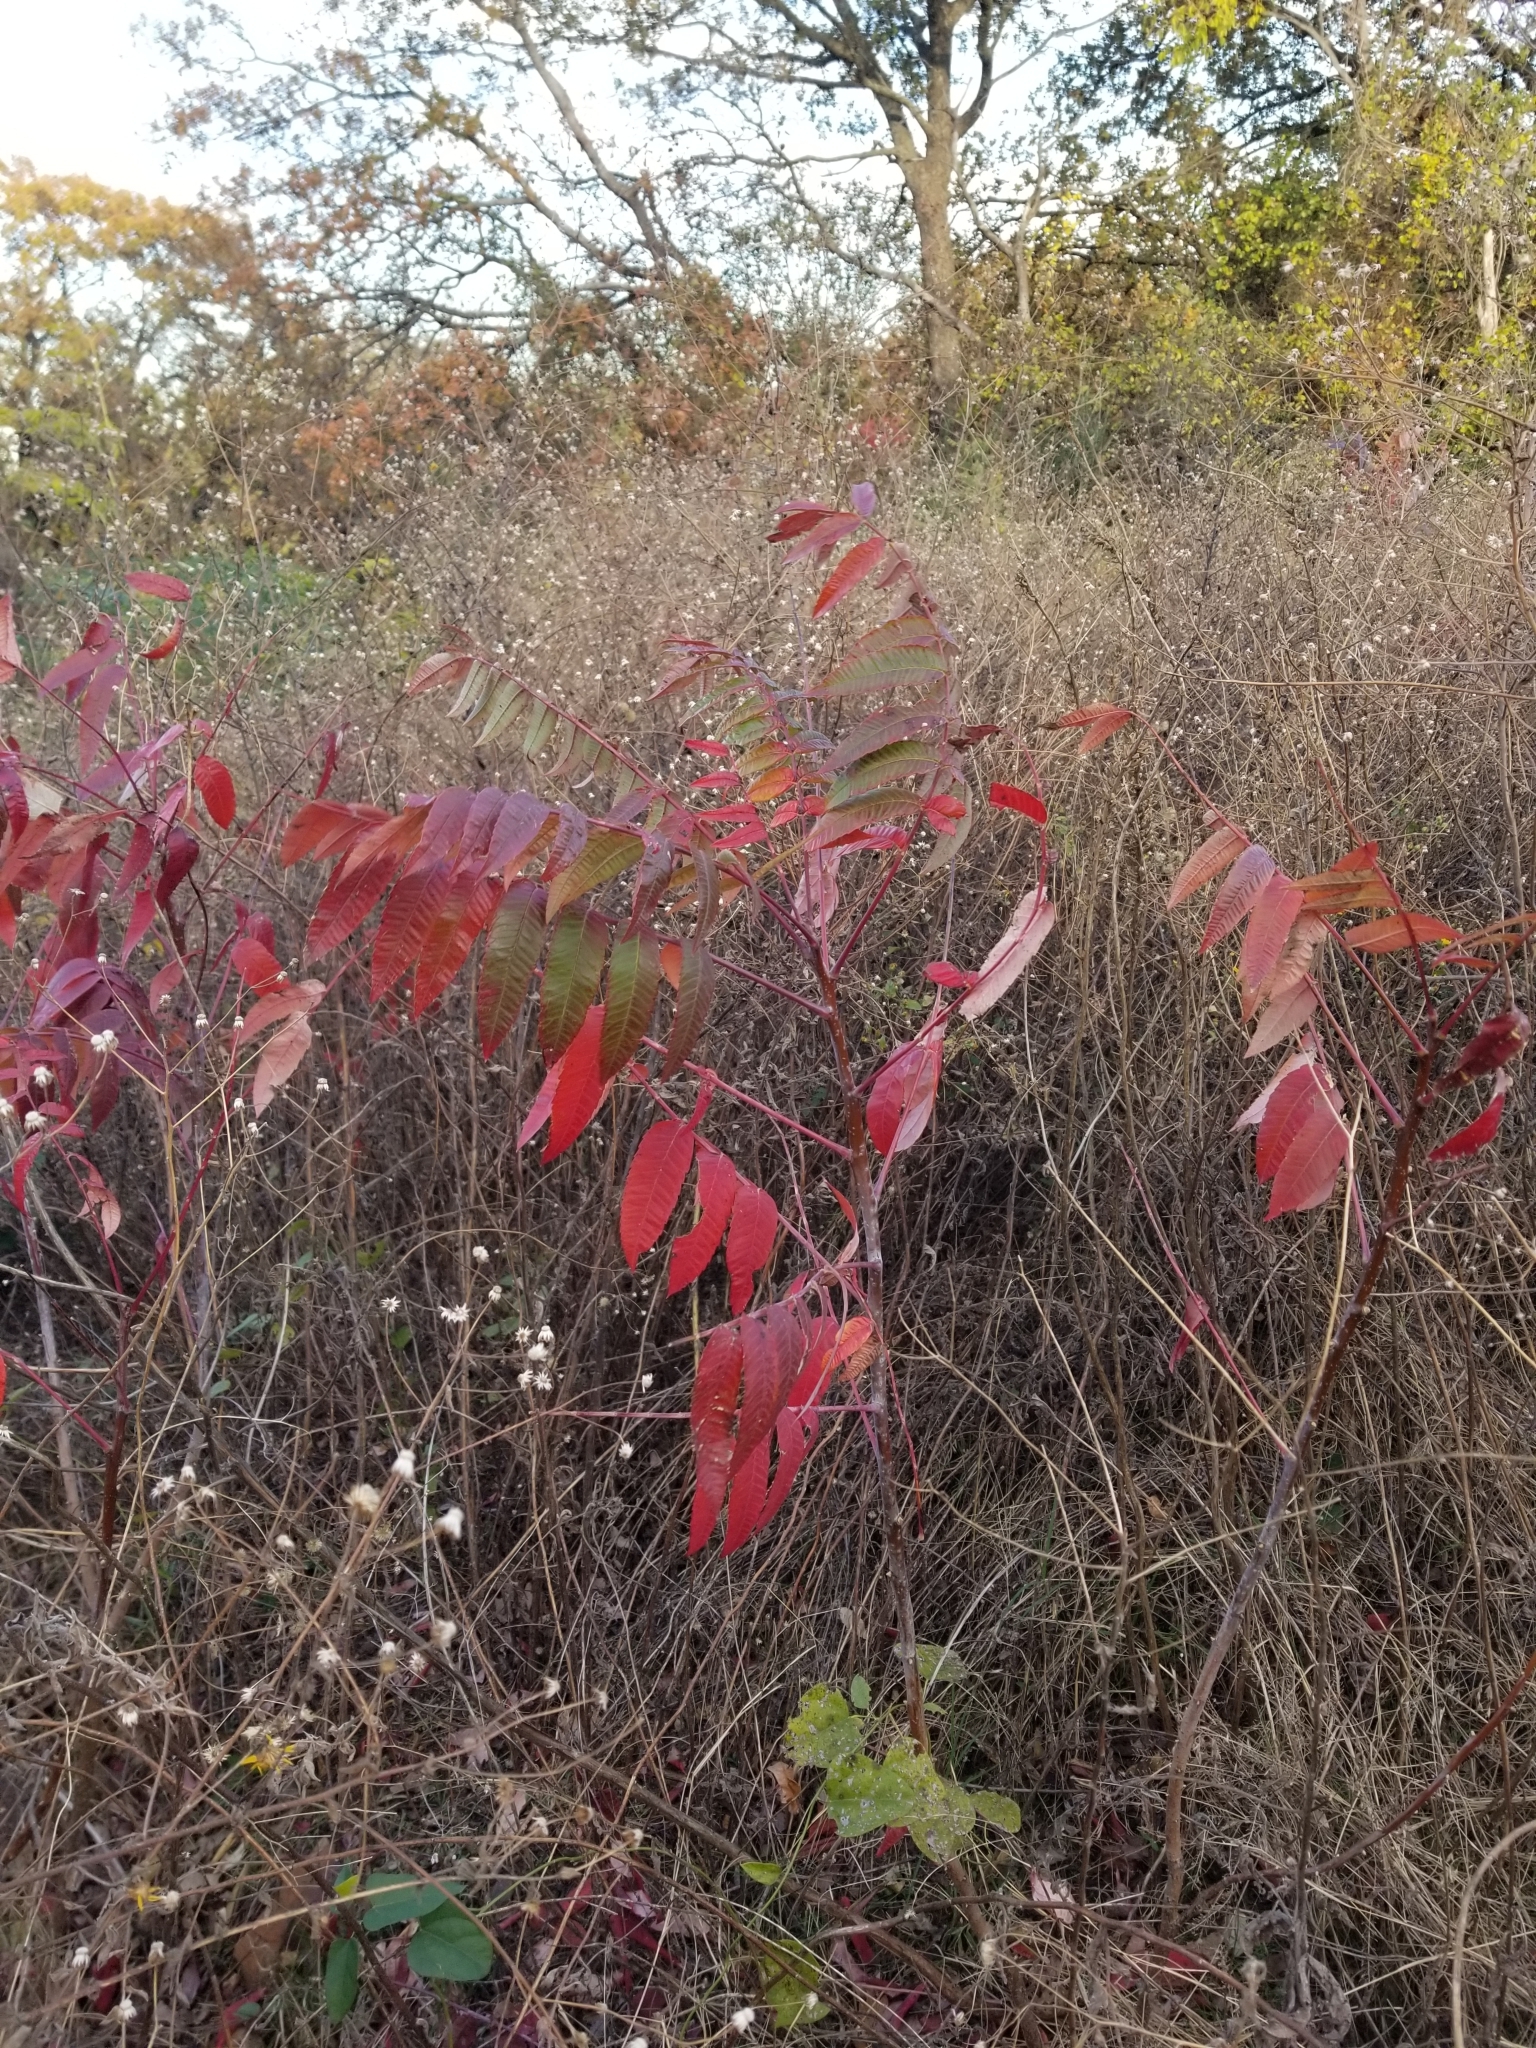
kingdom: Plantae
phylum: Tracheophyta
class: Magnoliopsida
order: Sapindales
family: Anacardiaceae
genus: Rhus
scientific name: Rhus glabra
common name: Scarlet sumac
